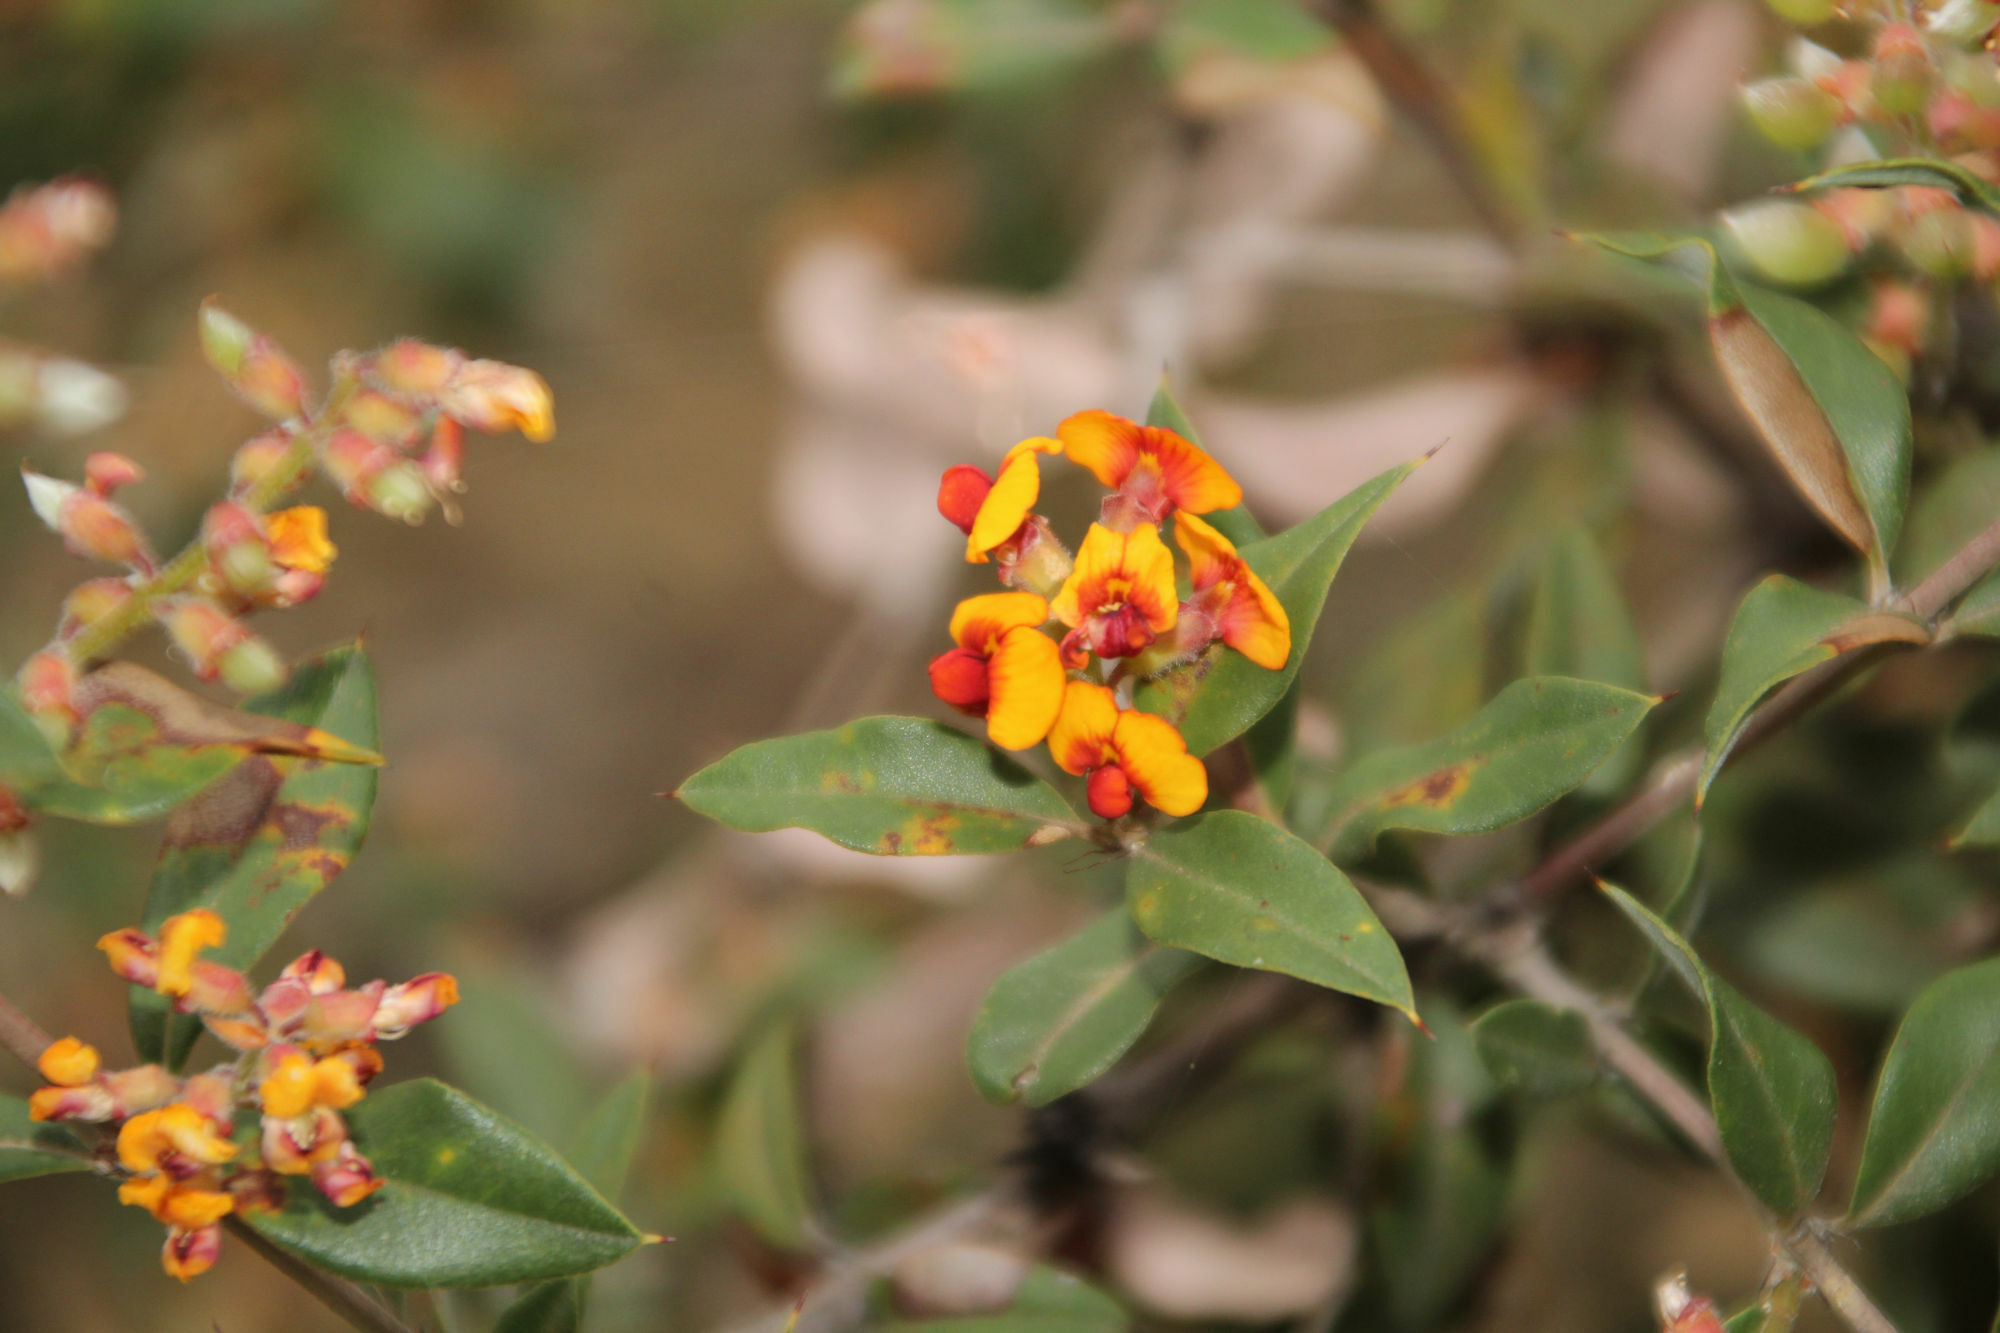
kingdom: Plantae
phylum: Tracheophyta
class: Magnoliopsida
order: Fabales
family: Fabaceae
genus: Gastrolobium
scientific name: Gastrolobium microcarpum
